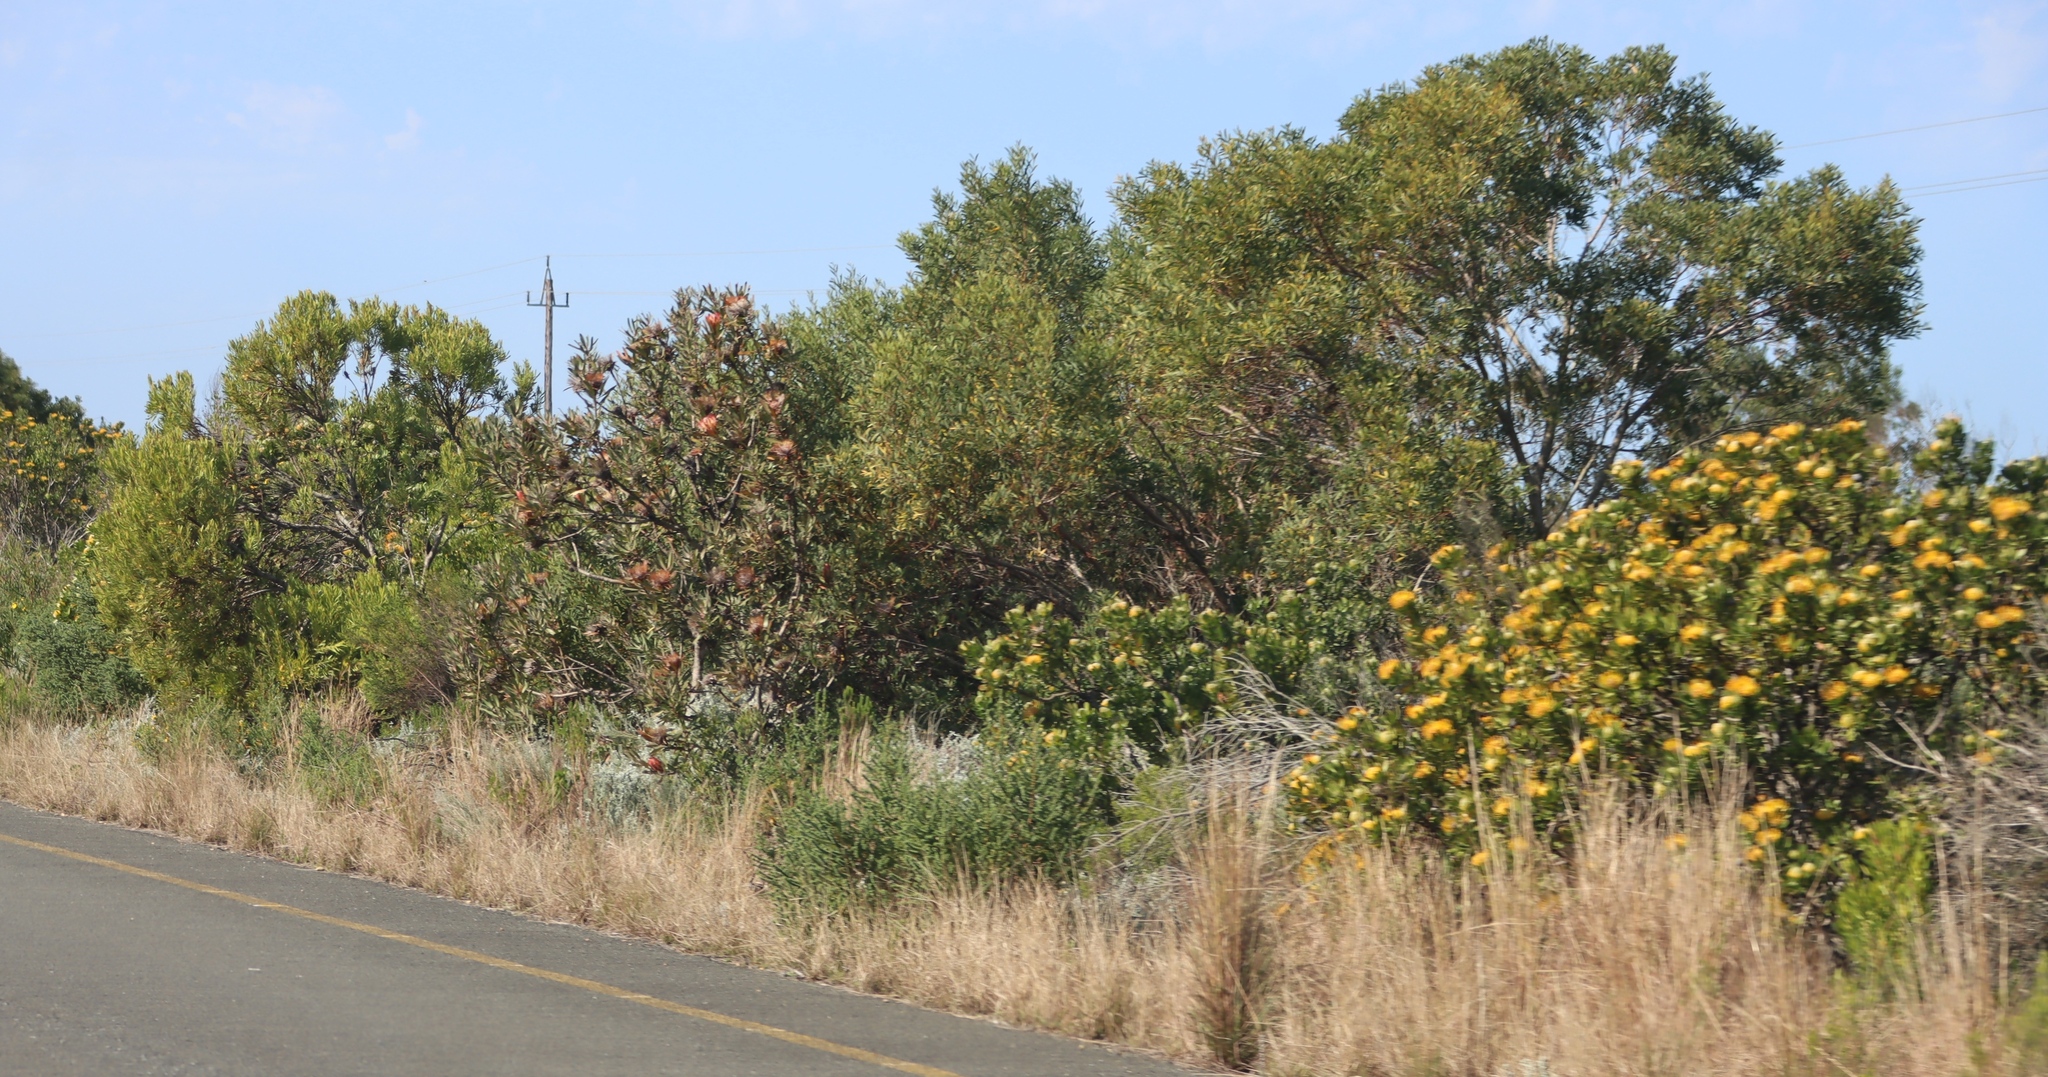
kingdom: Plantae
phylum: Tracheophyta
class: Magnoliopsida
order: Fabales
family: Fabaceae
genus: Acacia
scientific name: Acacia cyclops
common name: Coastal wattle
